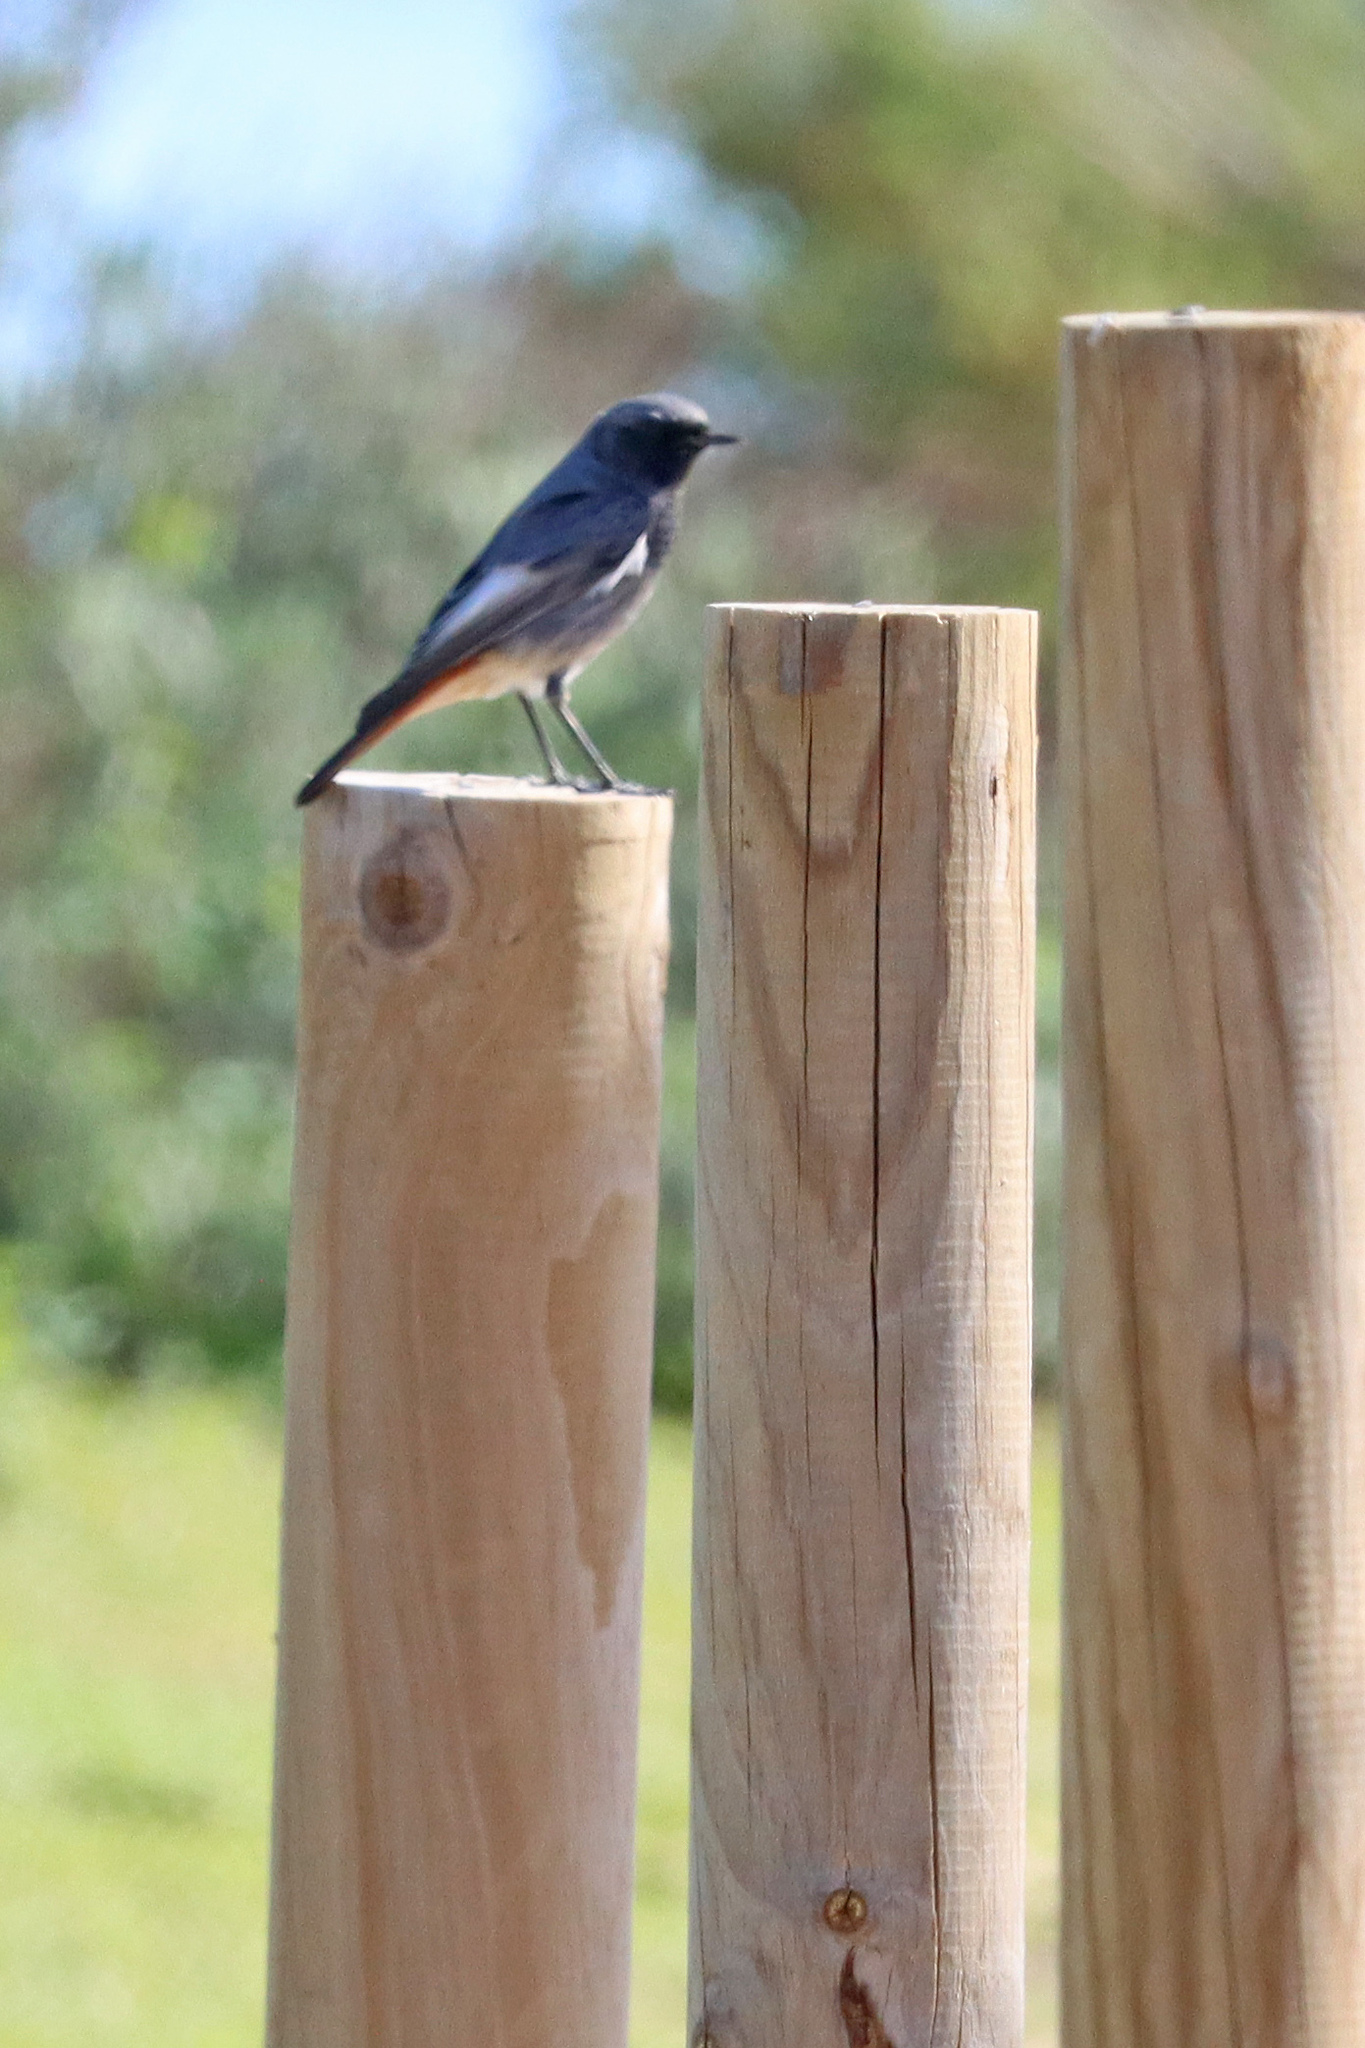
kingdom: Animalia
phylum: Chordata
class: Aves
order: Passeriformes
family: Muscicapidae
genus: Phoenicurus
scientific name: Phoenicurus ochruros
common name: Black redstart
